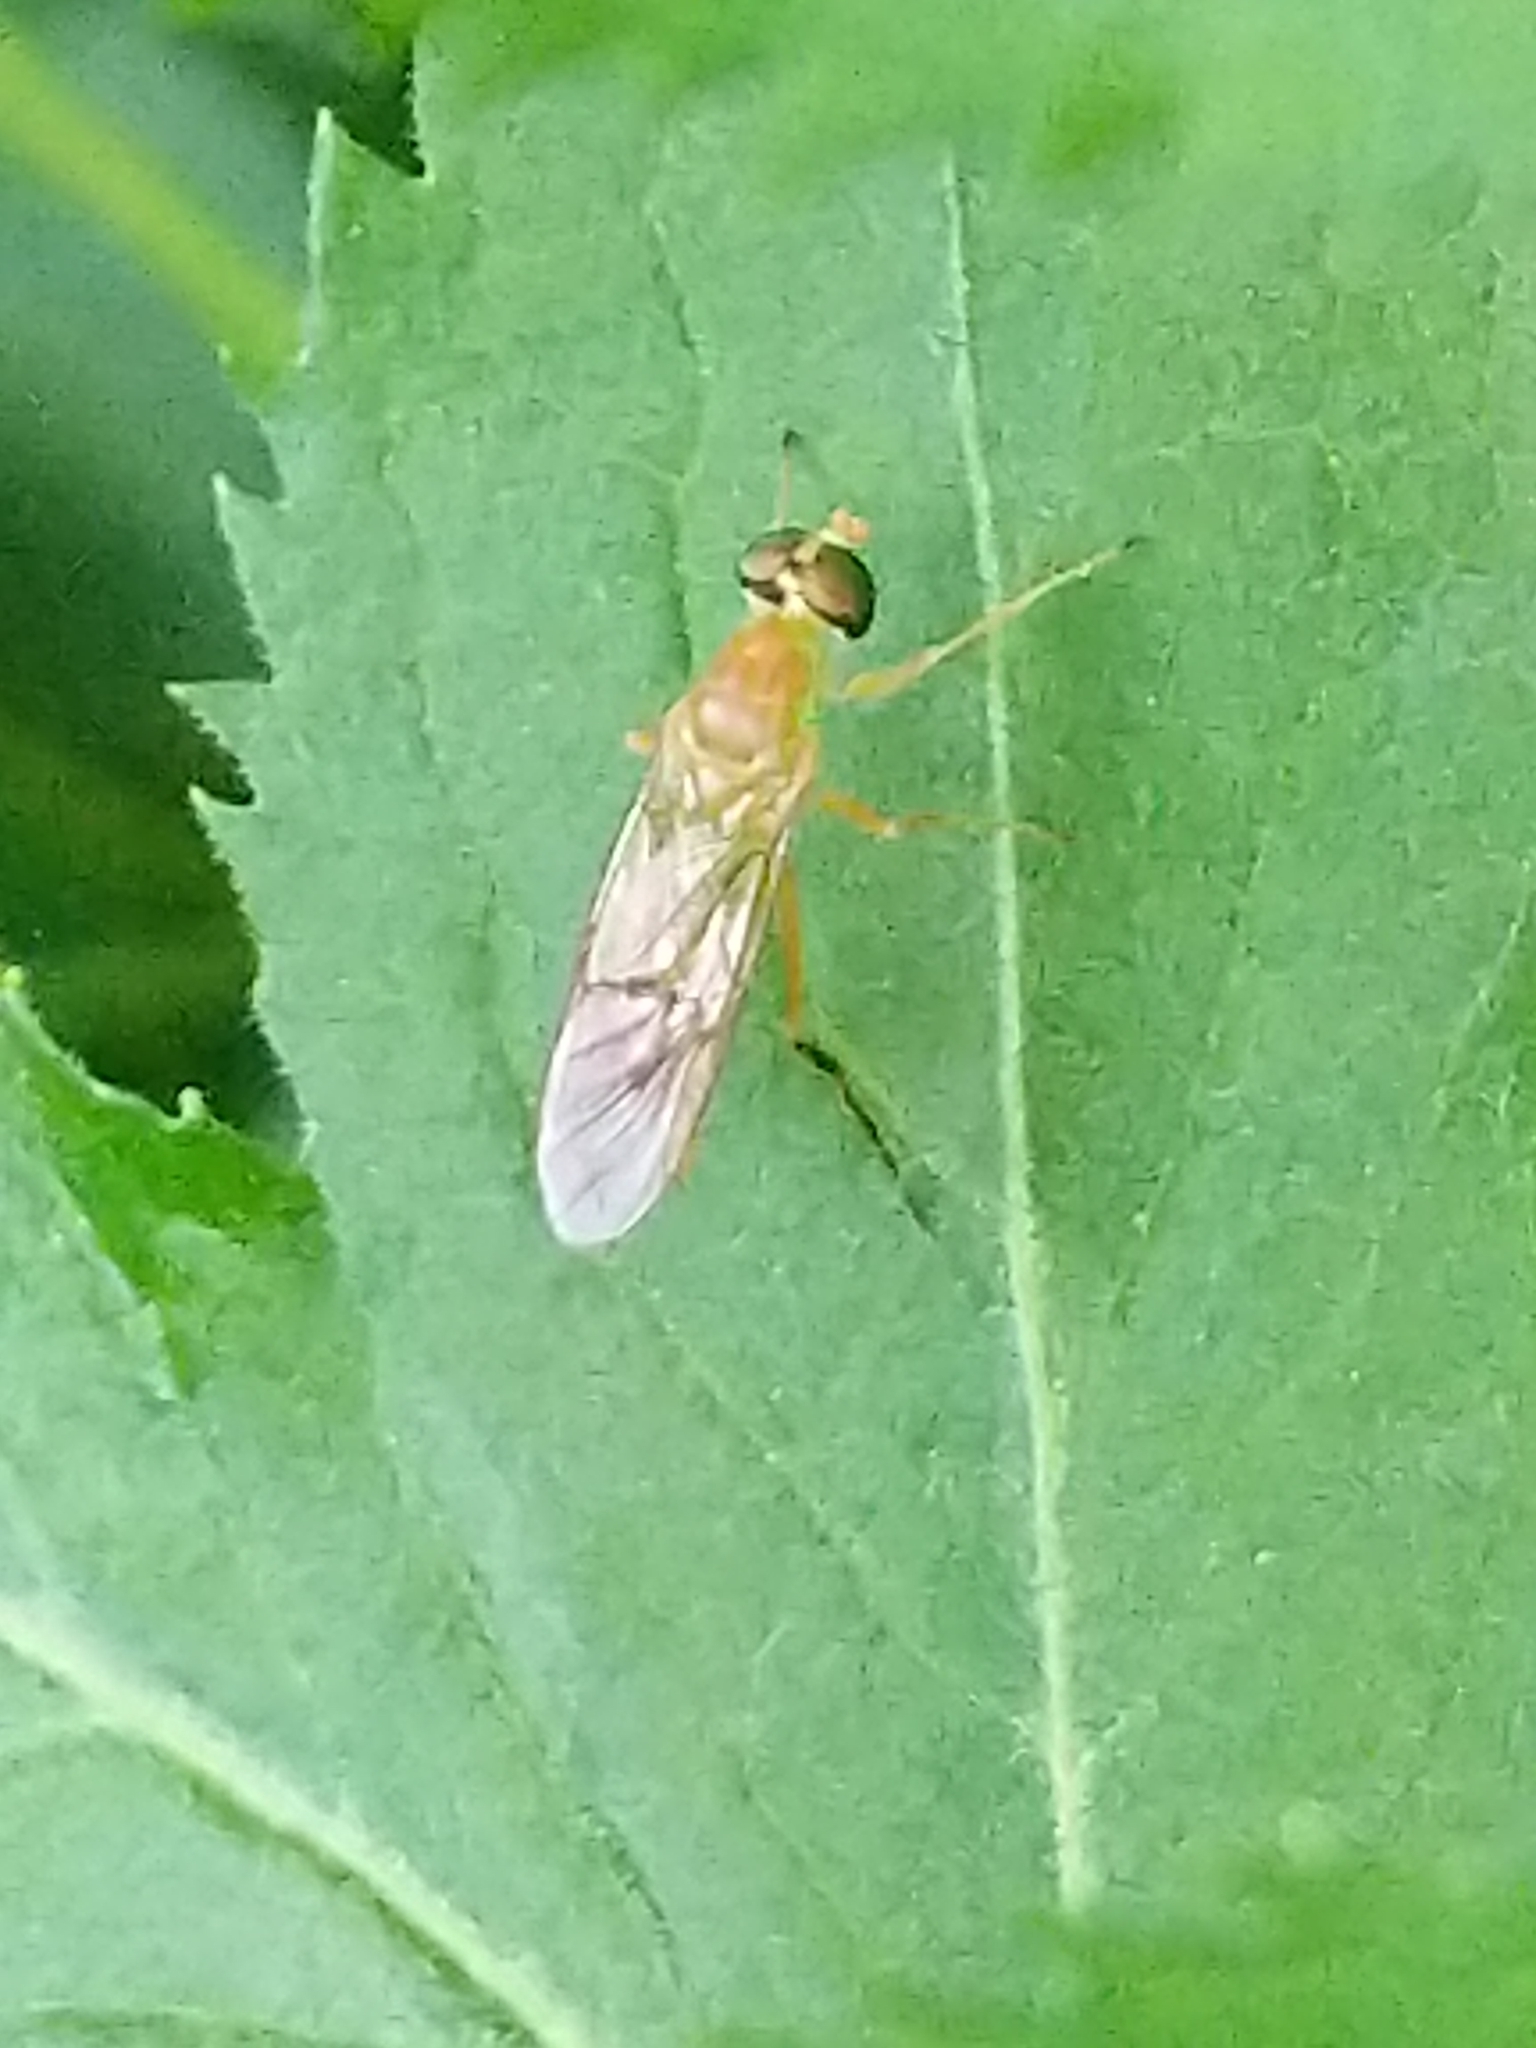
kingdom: Animalia
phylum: Arthropoda
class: Insecta
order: Diptera
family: Stratiomyidae
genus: Ptecticus
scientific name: Ptecticus trivittatus
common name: Compost fly
